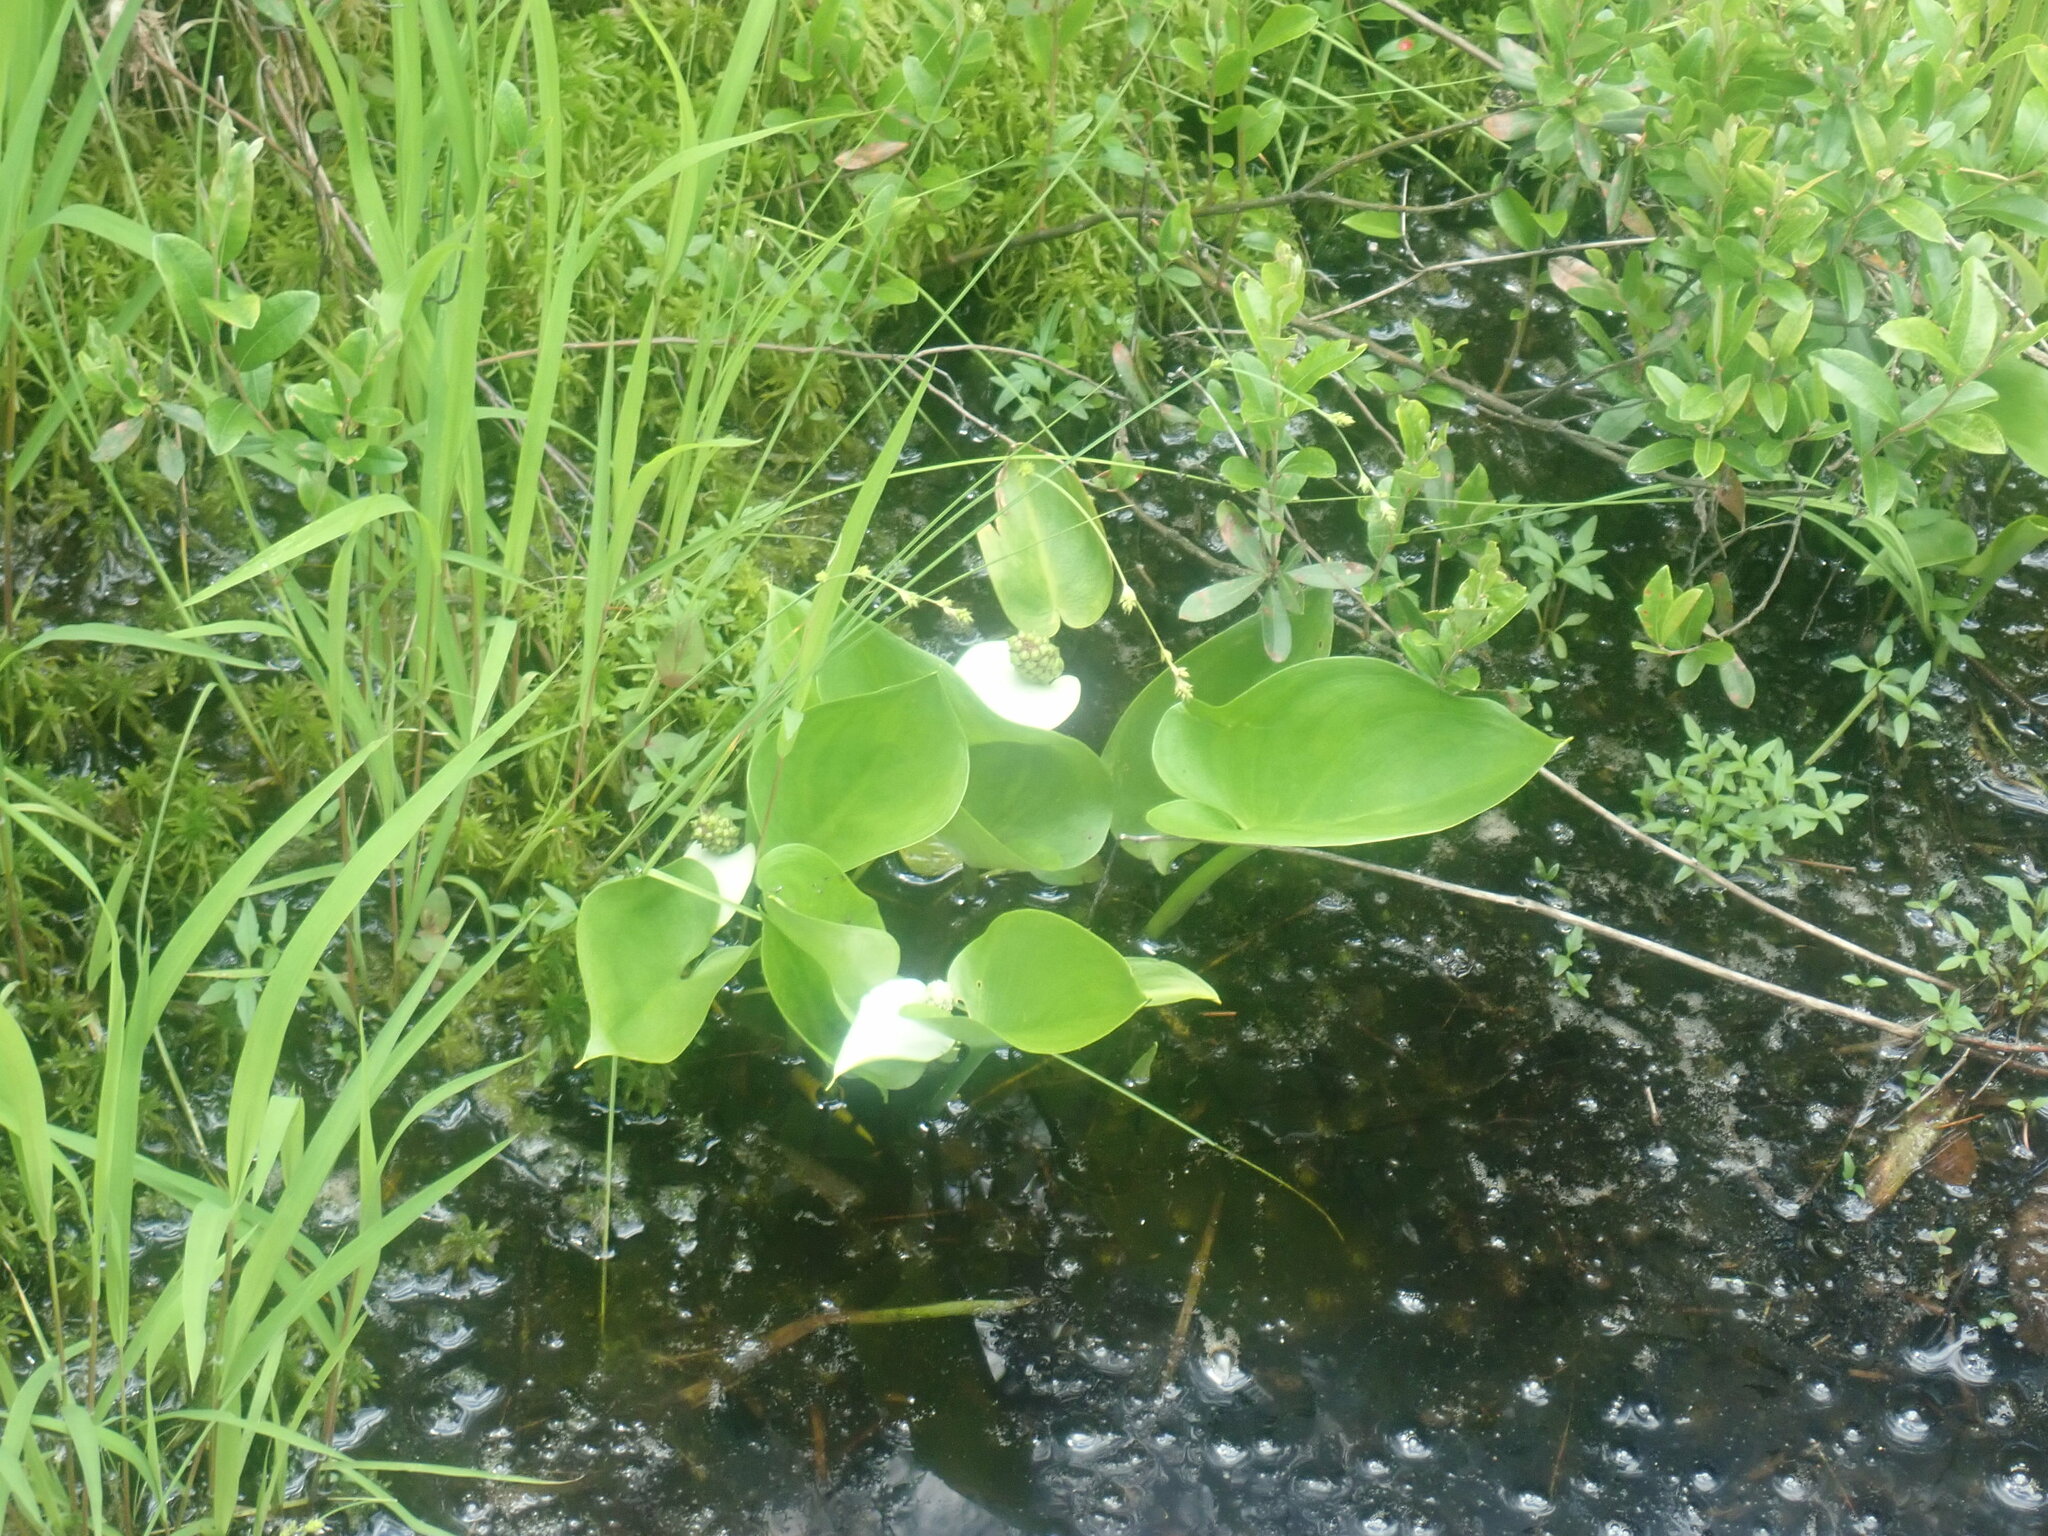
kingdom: Plantae
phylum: Tracheophyta
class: Liliopsida
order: Alismatales
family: Araceae
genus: Calla
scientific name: Calla palustris
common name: Bog arum
